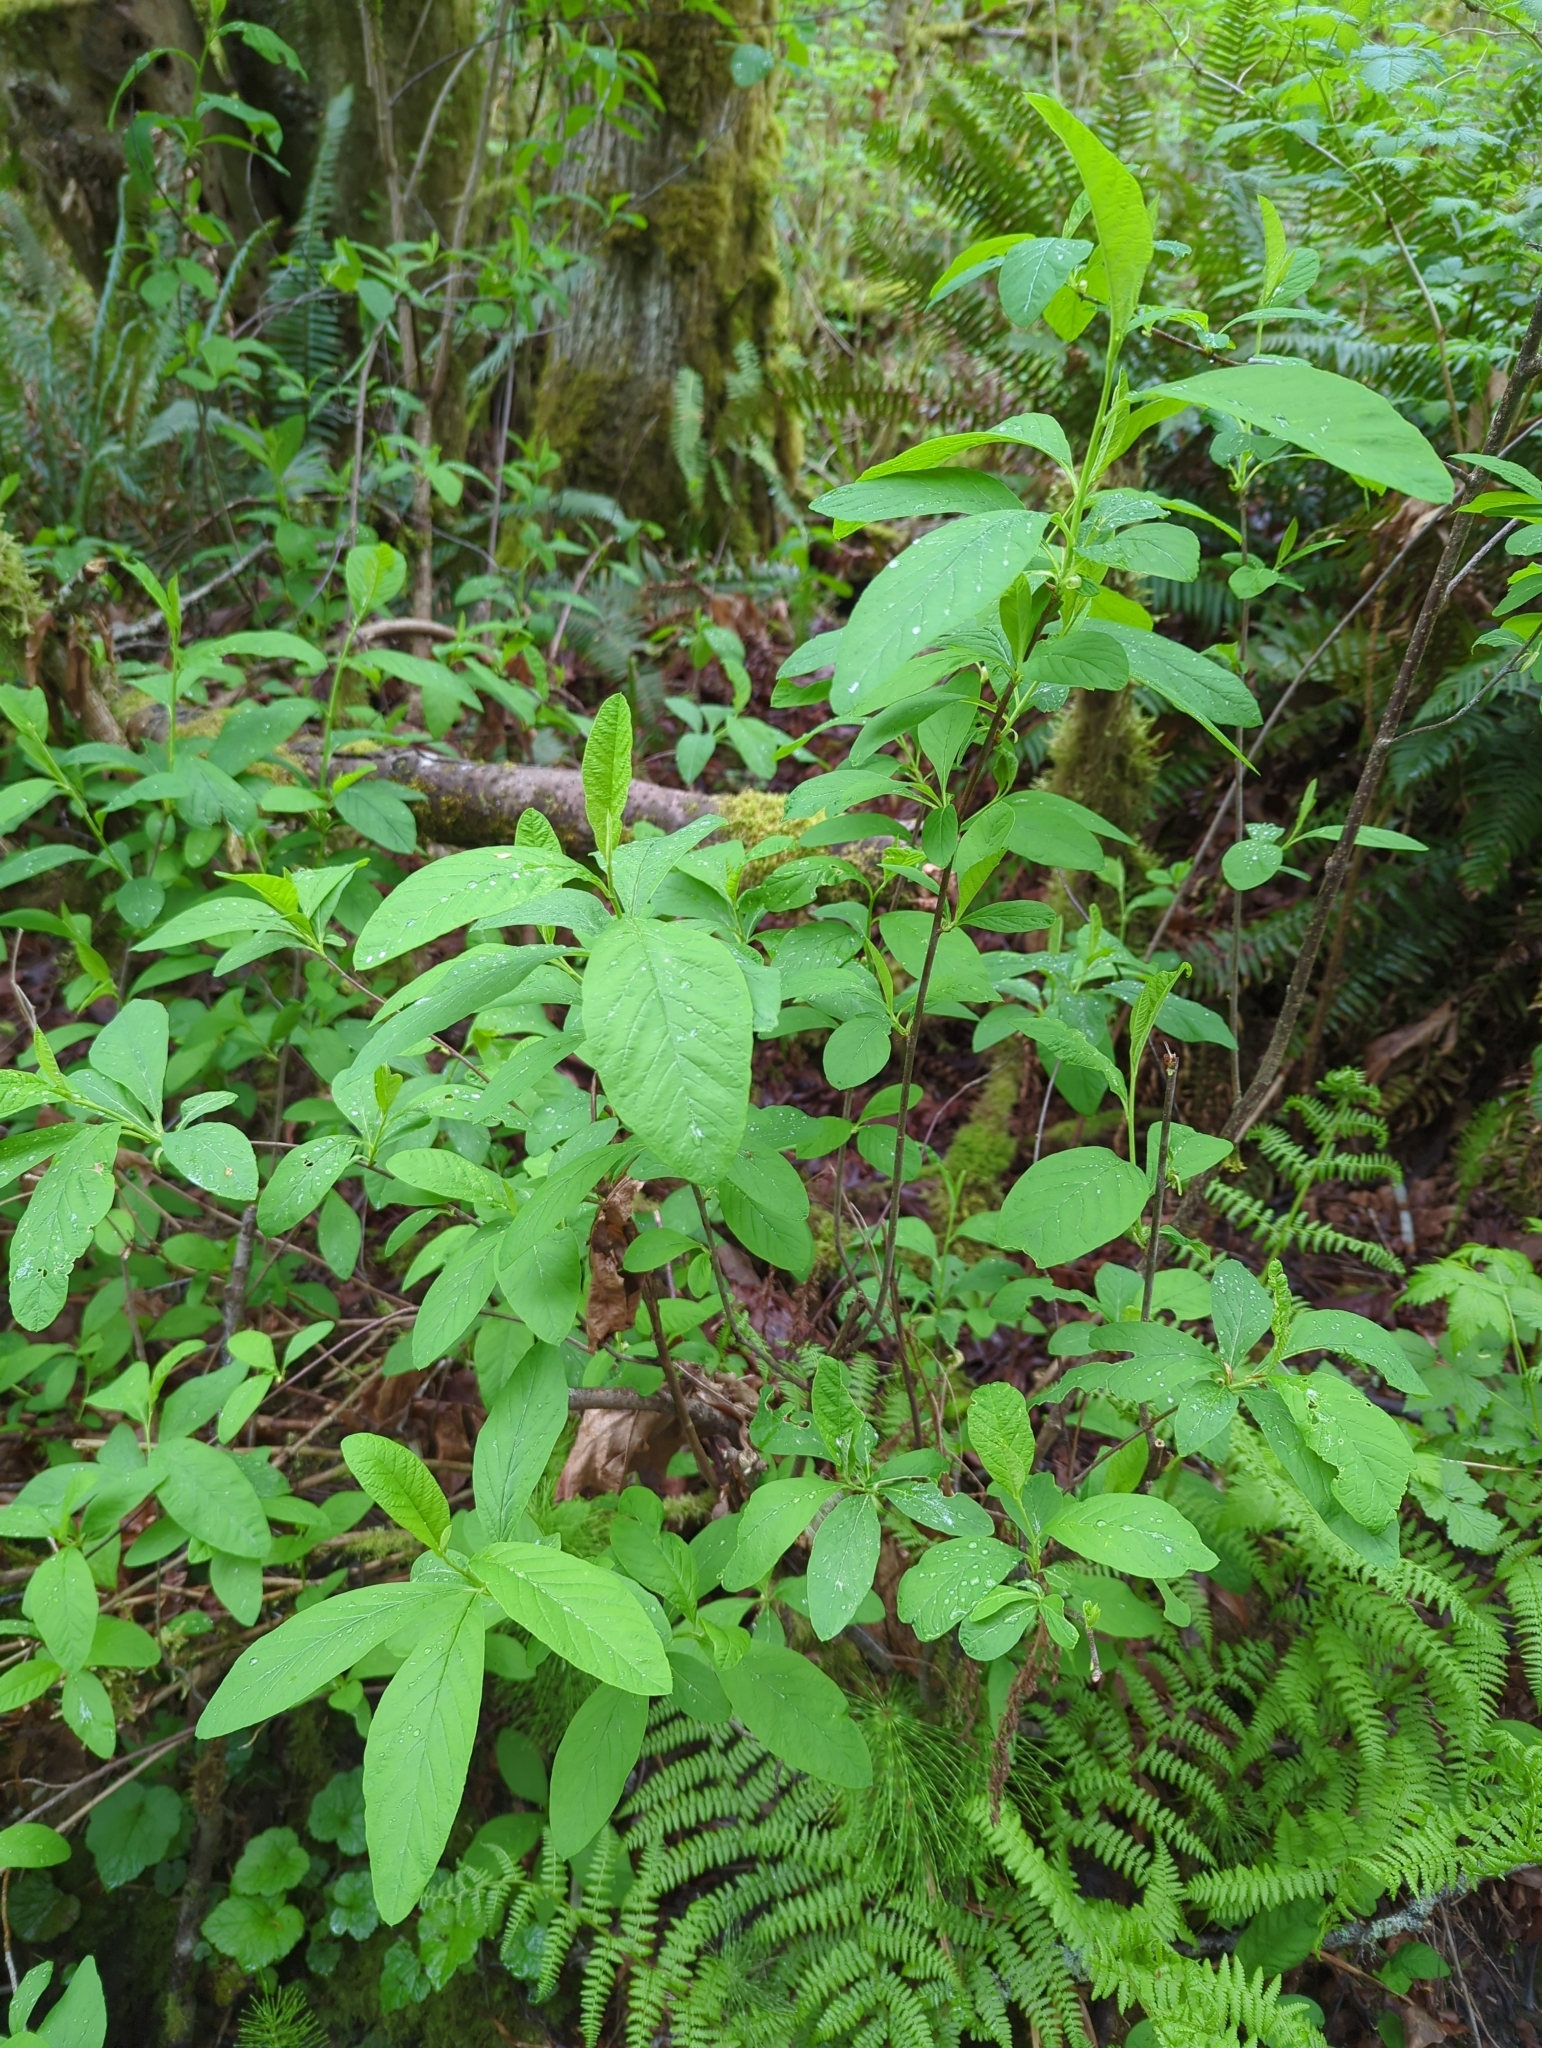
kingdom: Plantae
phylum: Tracheophyta
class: Magnoliopsida
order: Rosales
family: Rosaceae
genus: Oemleria
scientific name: Oemleria cerasiformis
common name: Osoberry
